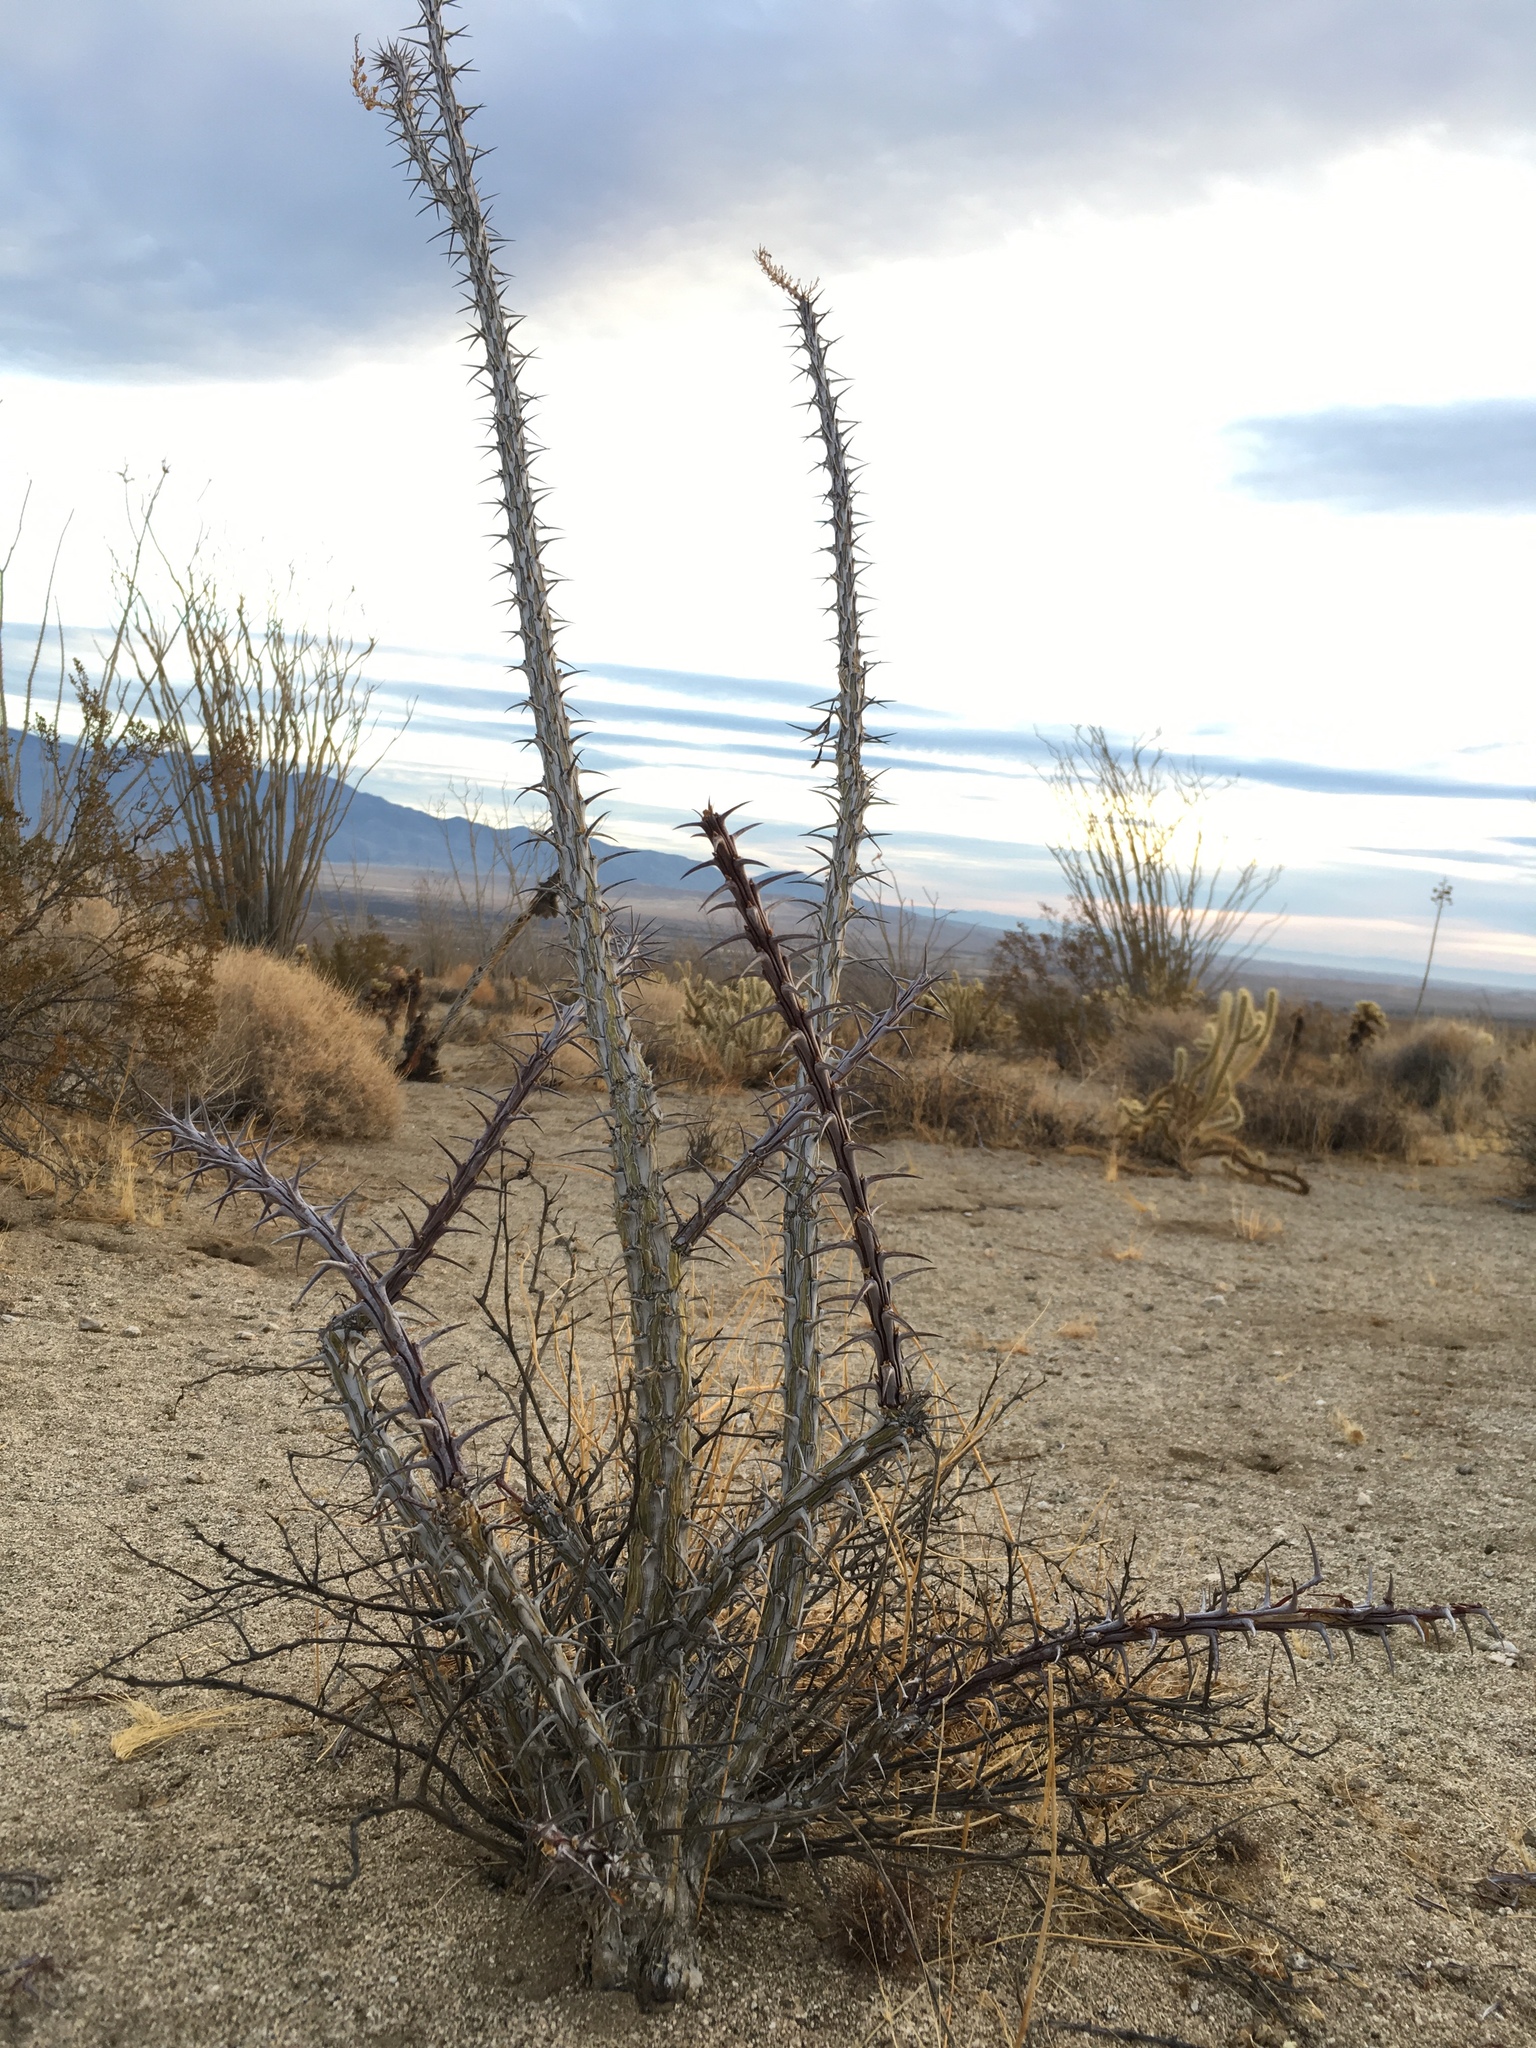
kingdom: Plantae
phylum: Tracheophyta
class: Magnoliopsida
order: Ericales
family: Fouquieriaceae
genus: Fouquieria
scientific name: Fouquieria splendens
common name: Vine-cactus
